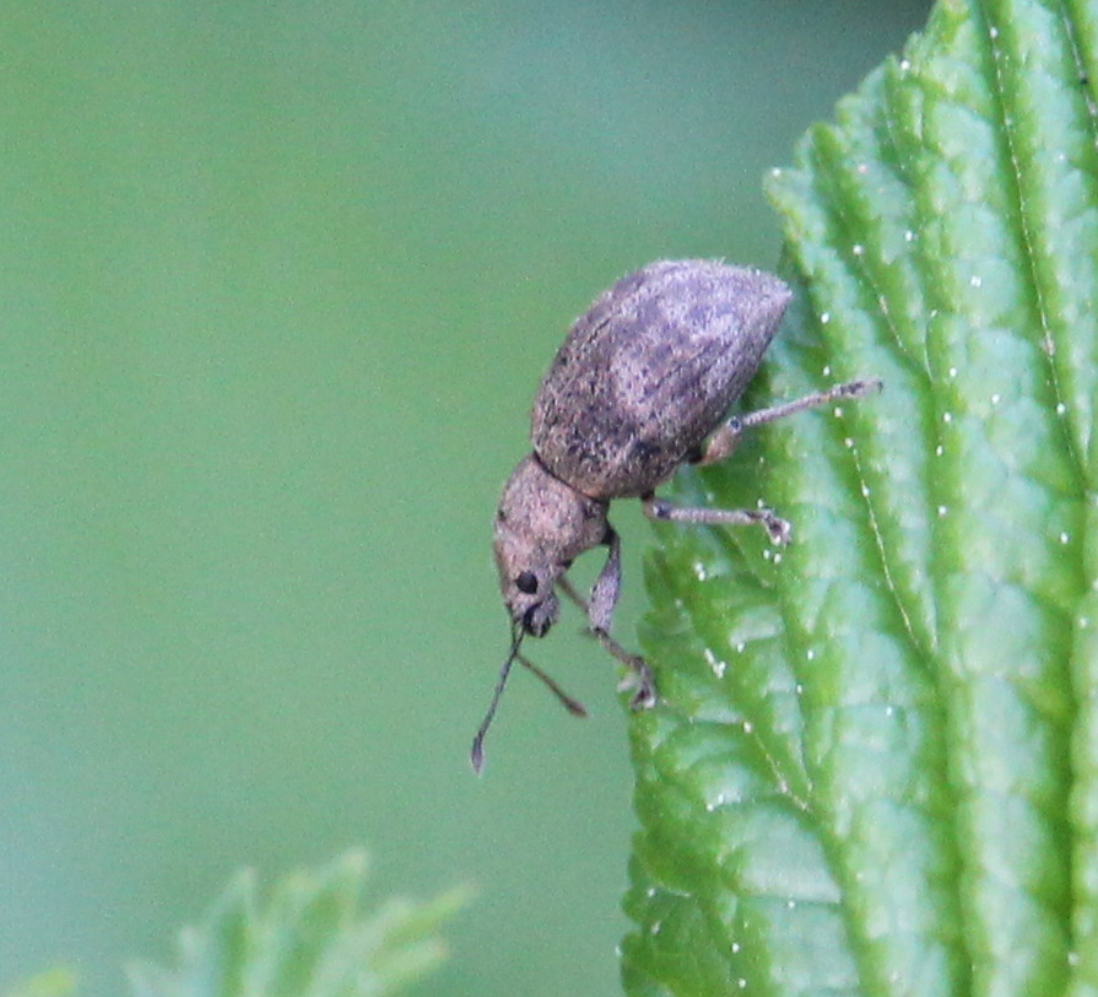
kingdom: Animalia
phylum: Arthropoda
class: Insecta
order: Coleoptera
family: Curculionidae
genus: Sciaphilus
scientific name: Sciaphilus asperatus
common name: Weevil
